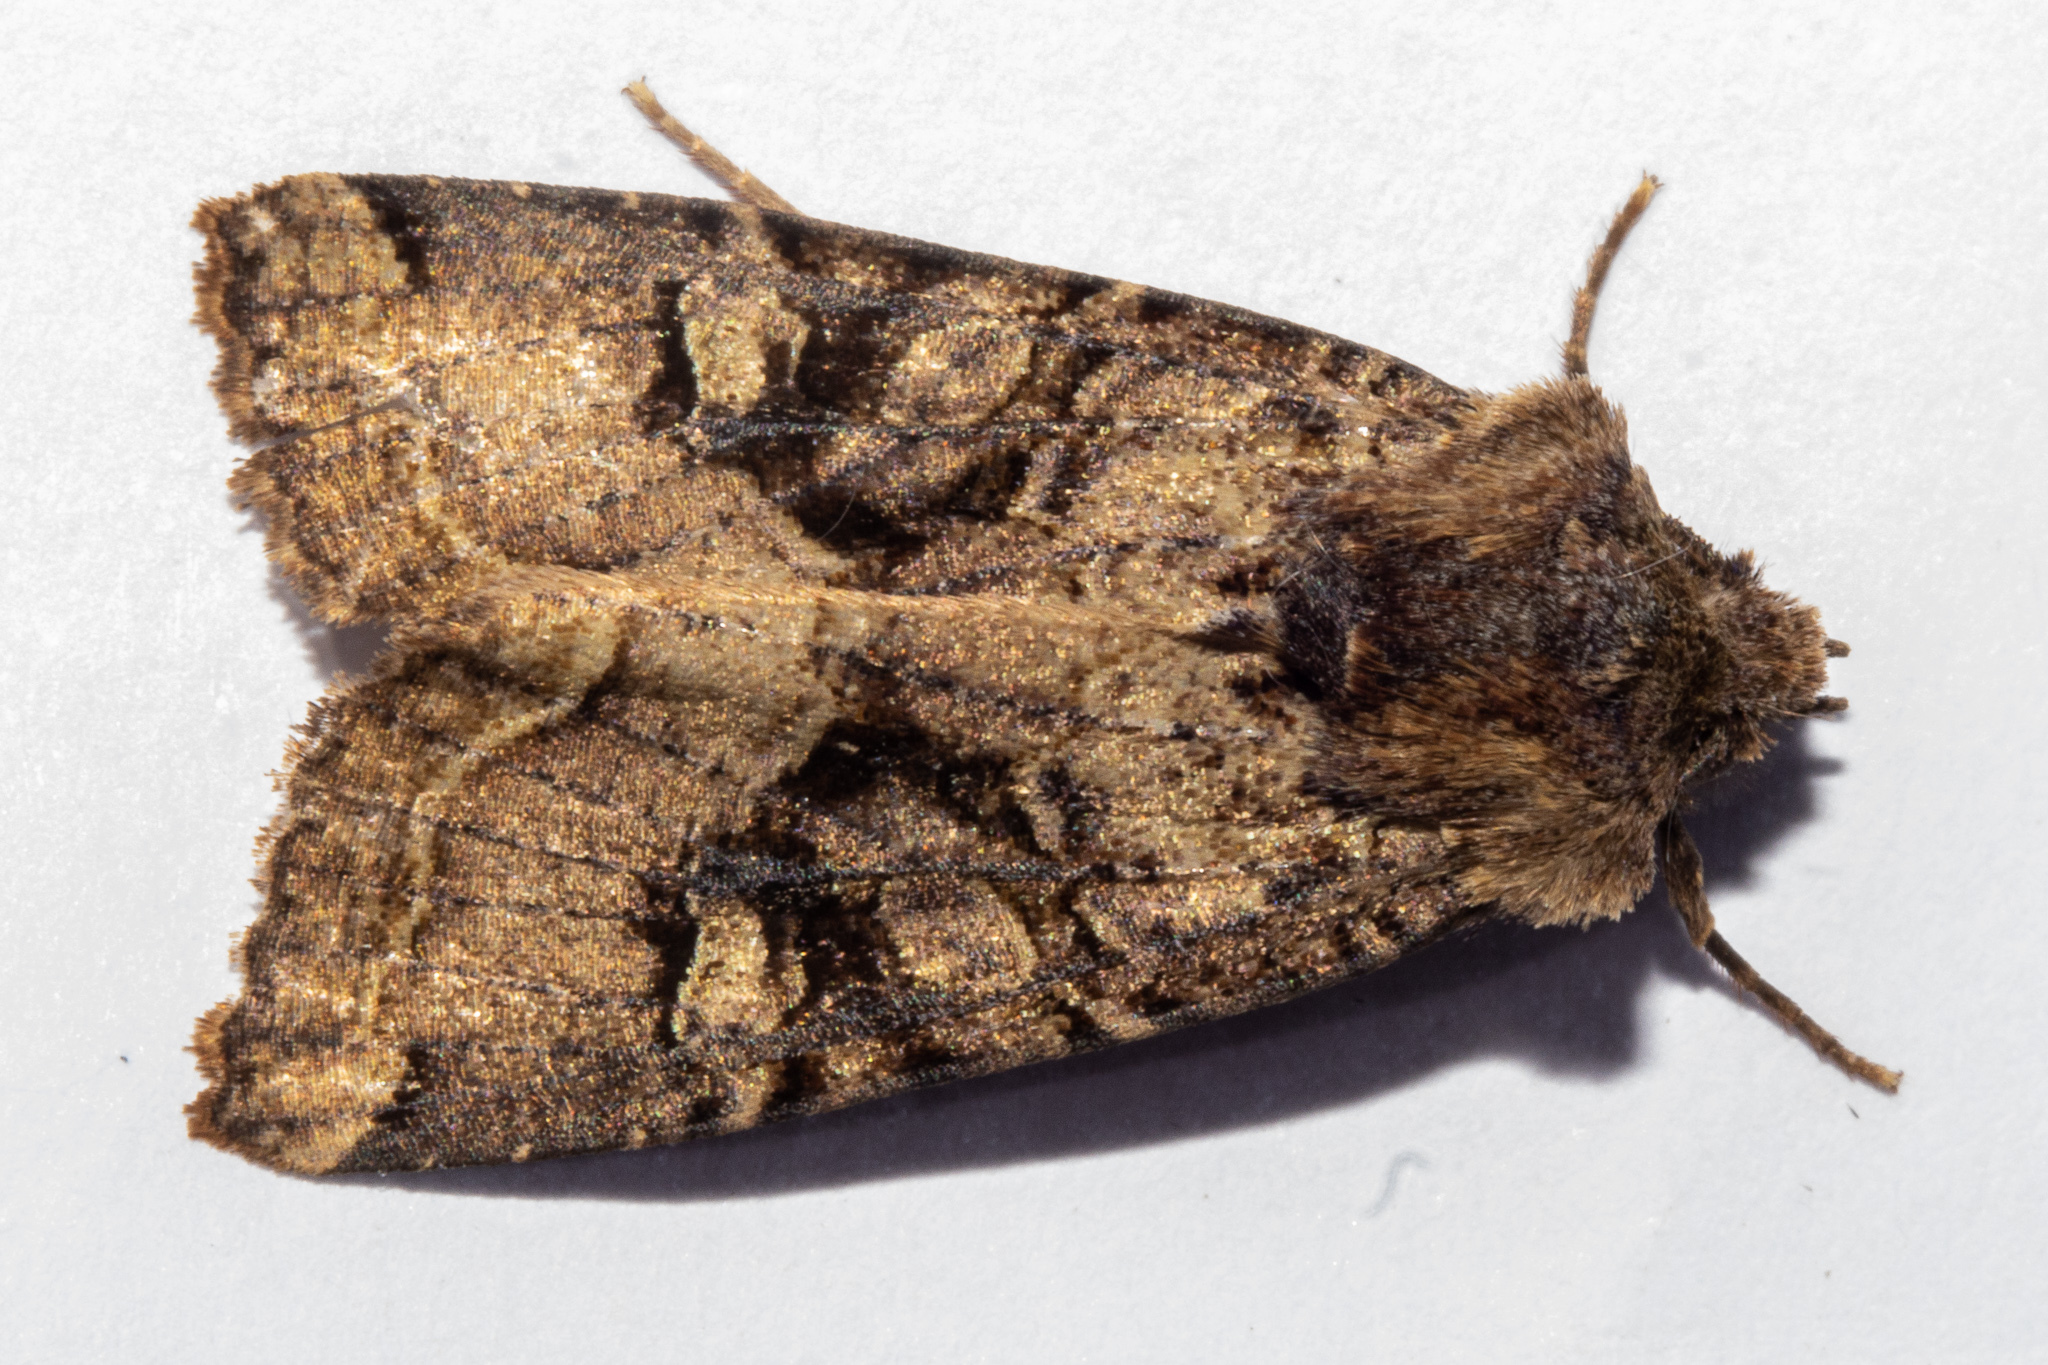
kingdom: Animalia
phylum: Arthropoda
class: Insecta
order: Lepidoptera
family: Noctuidae
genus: Meterana
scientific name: Meterana tartaraea
